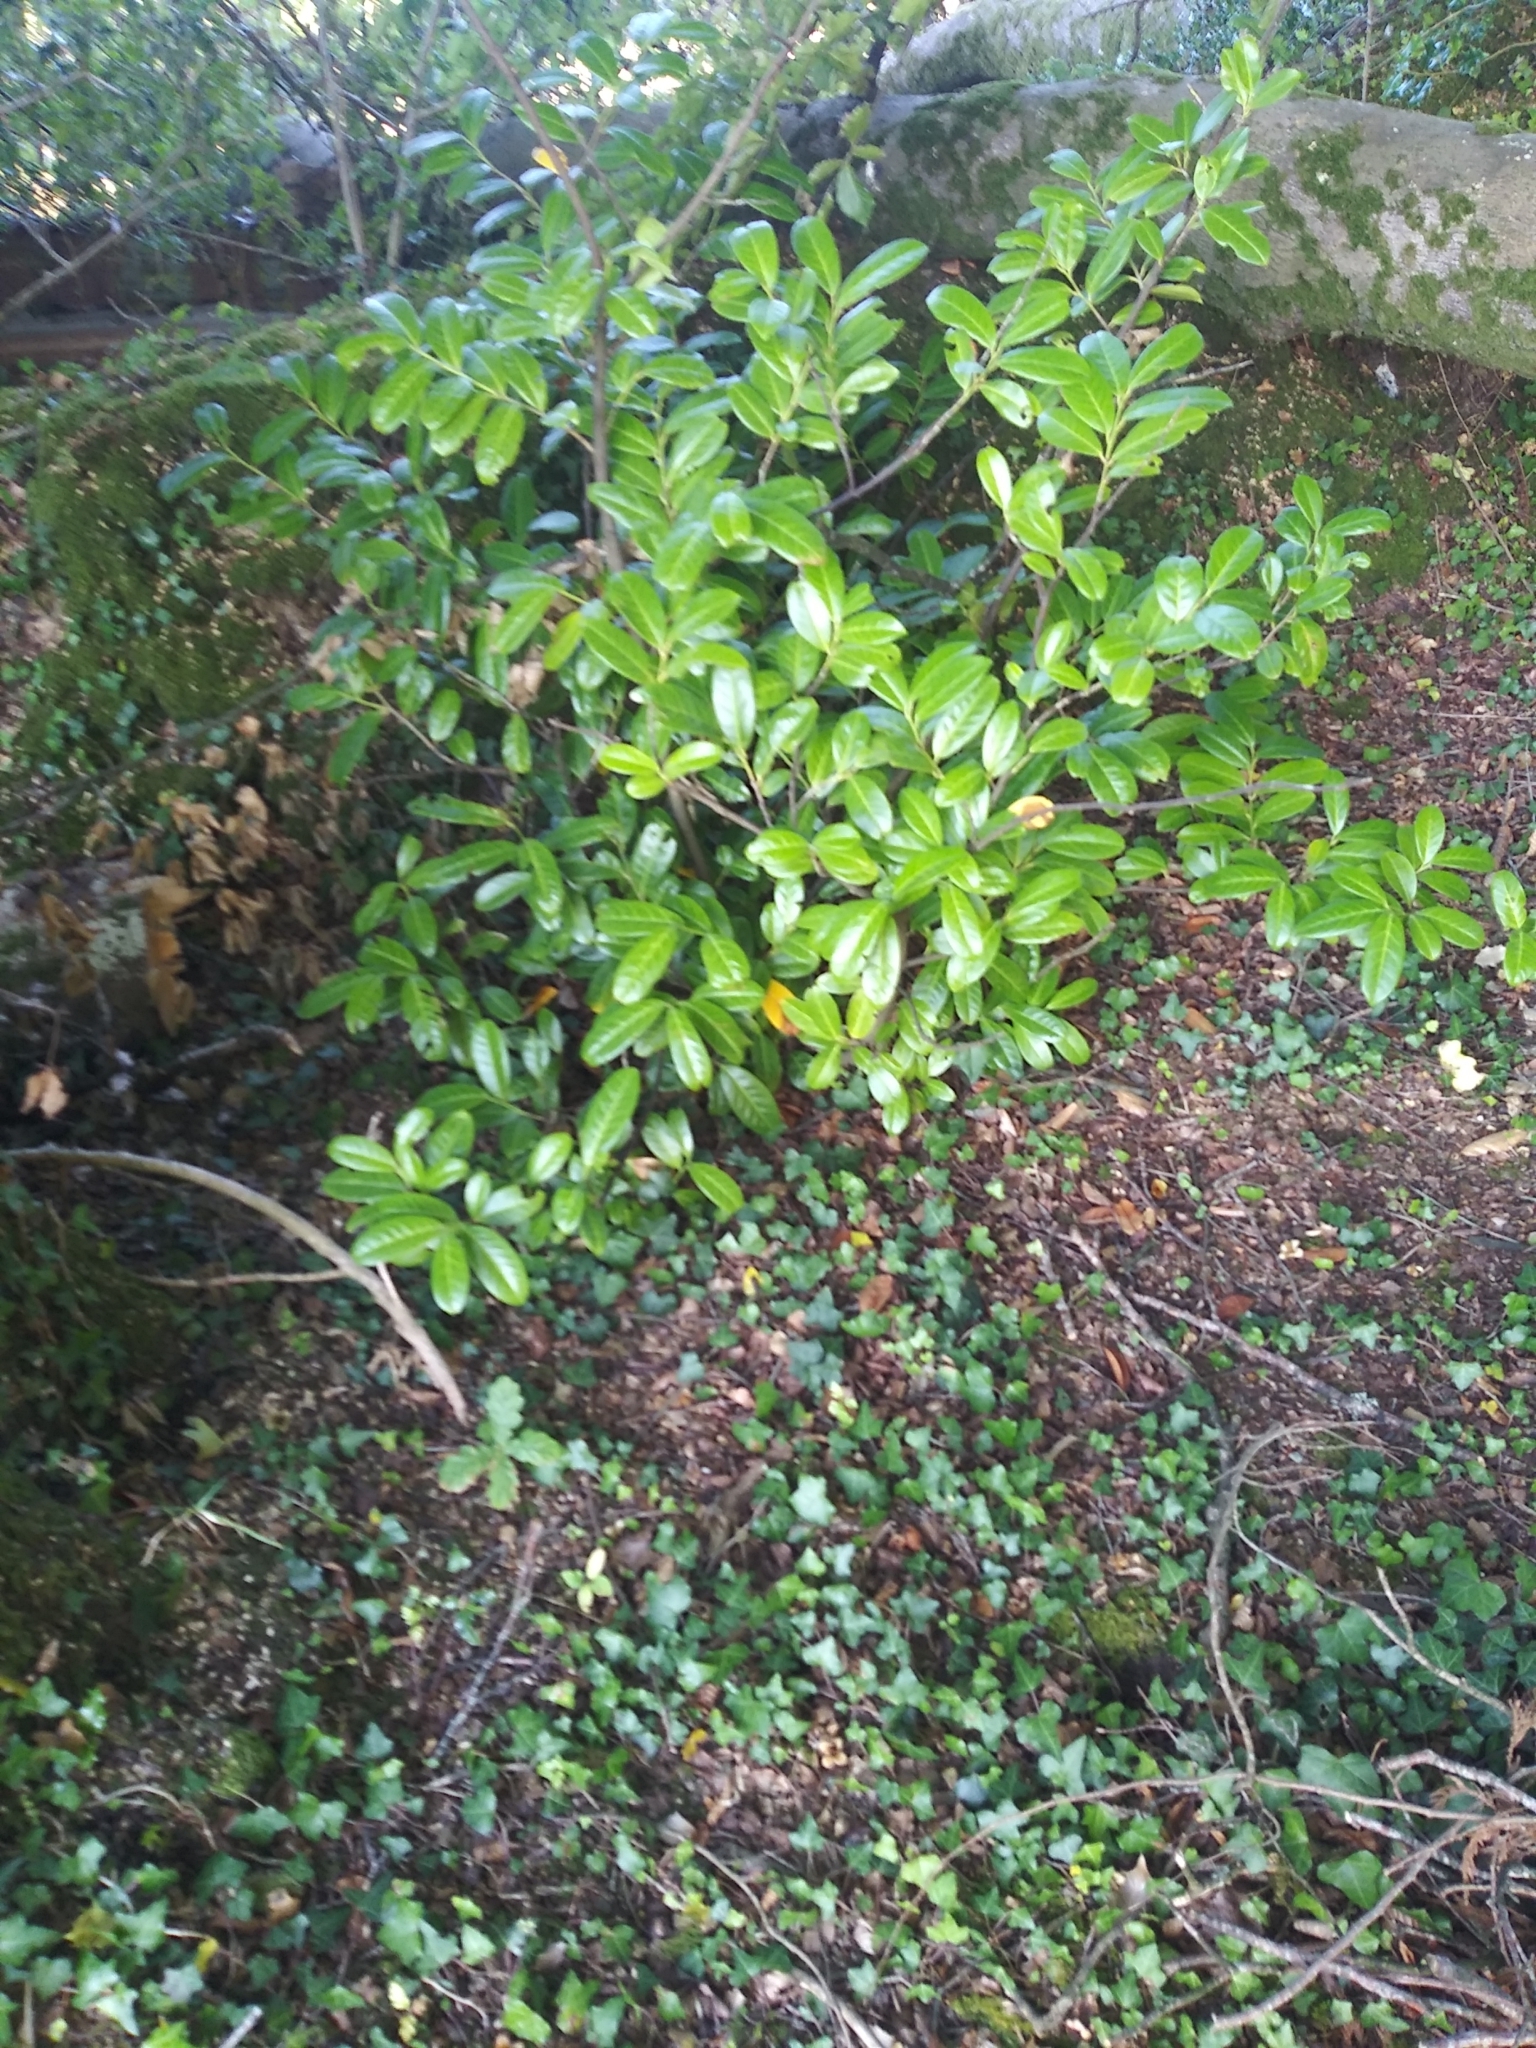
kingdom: Plantae
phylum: Tracheophyta
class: Magnoliopsida
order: Rosales
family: Rosaceae
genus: Prunus
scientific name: Prunus laurocerasus
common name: Cherry laurel
